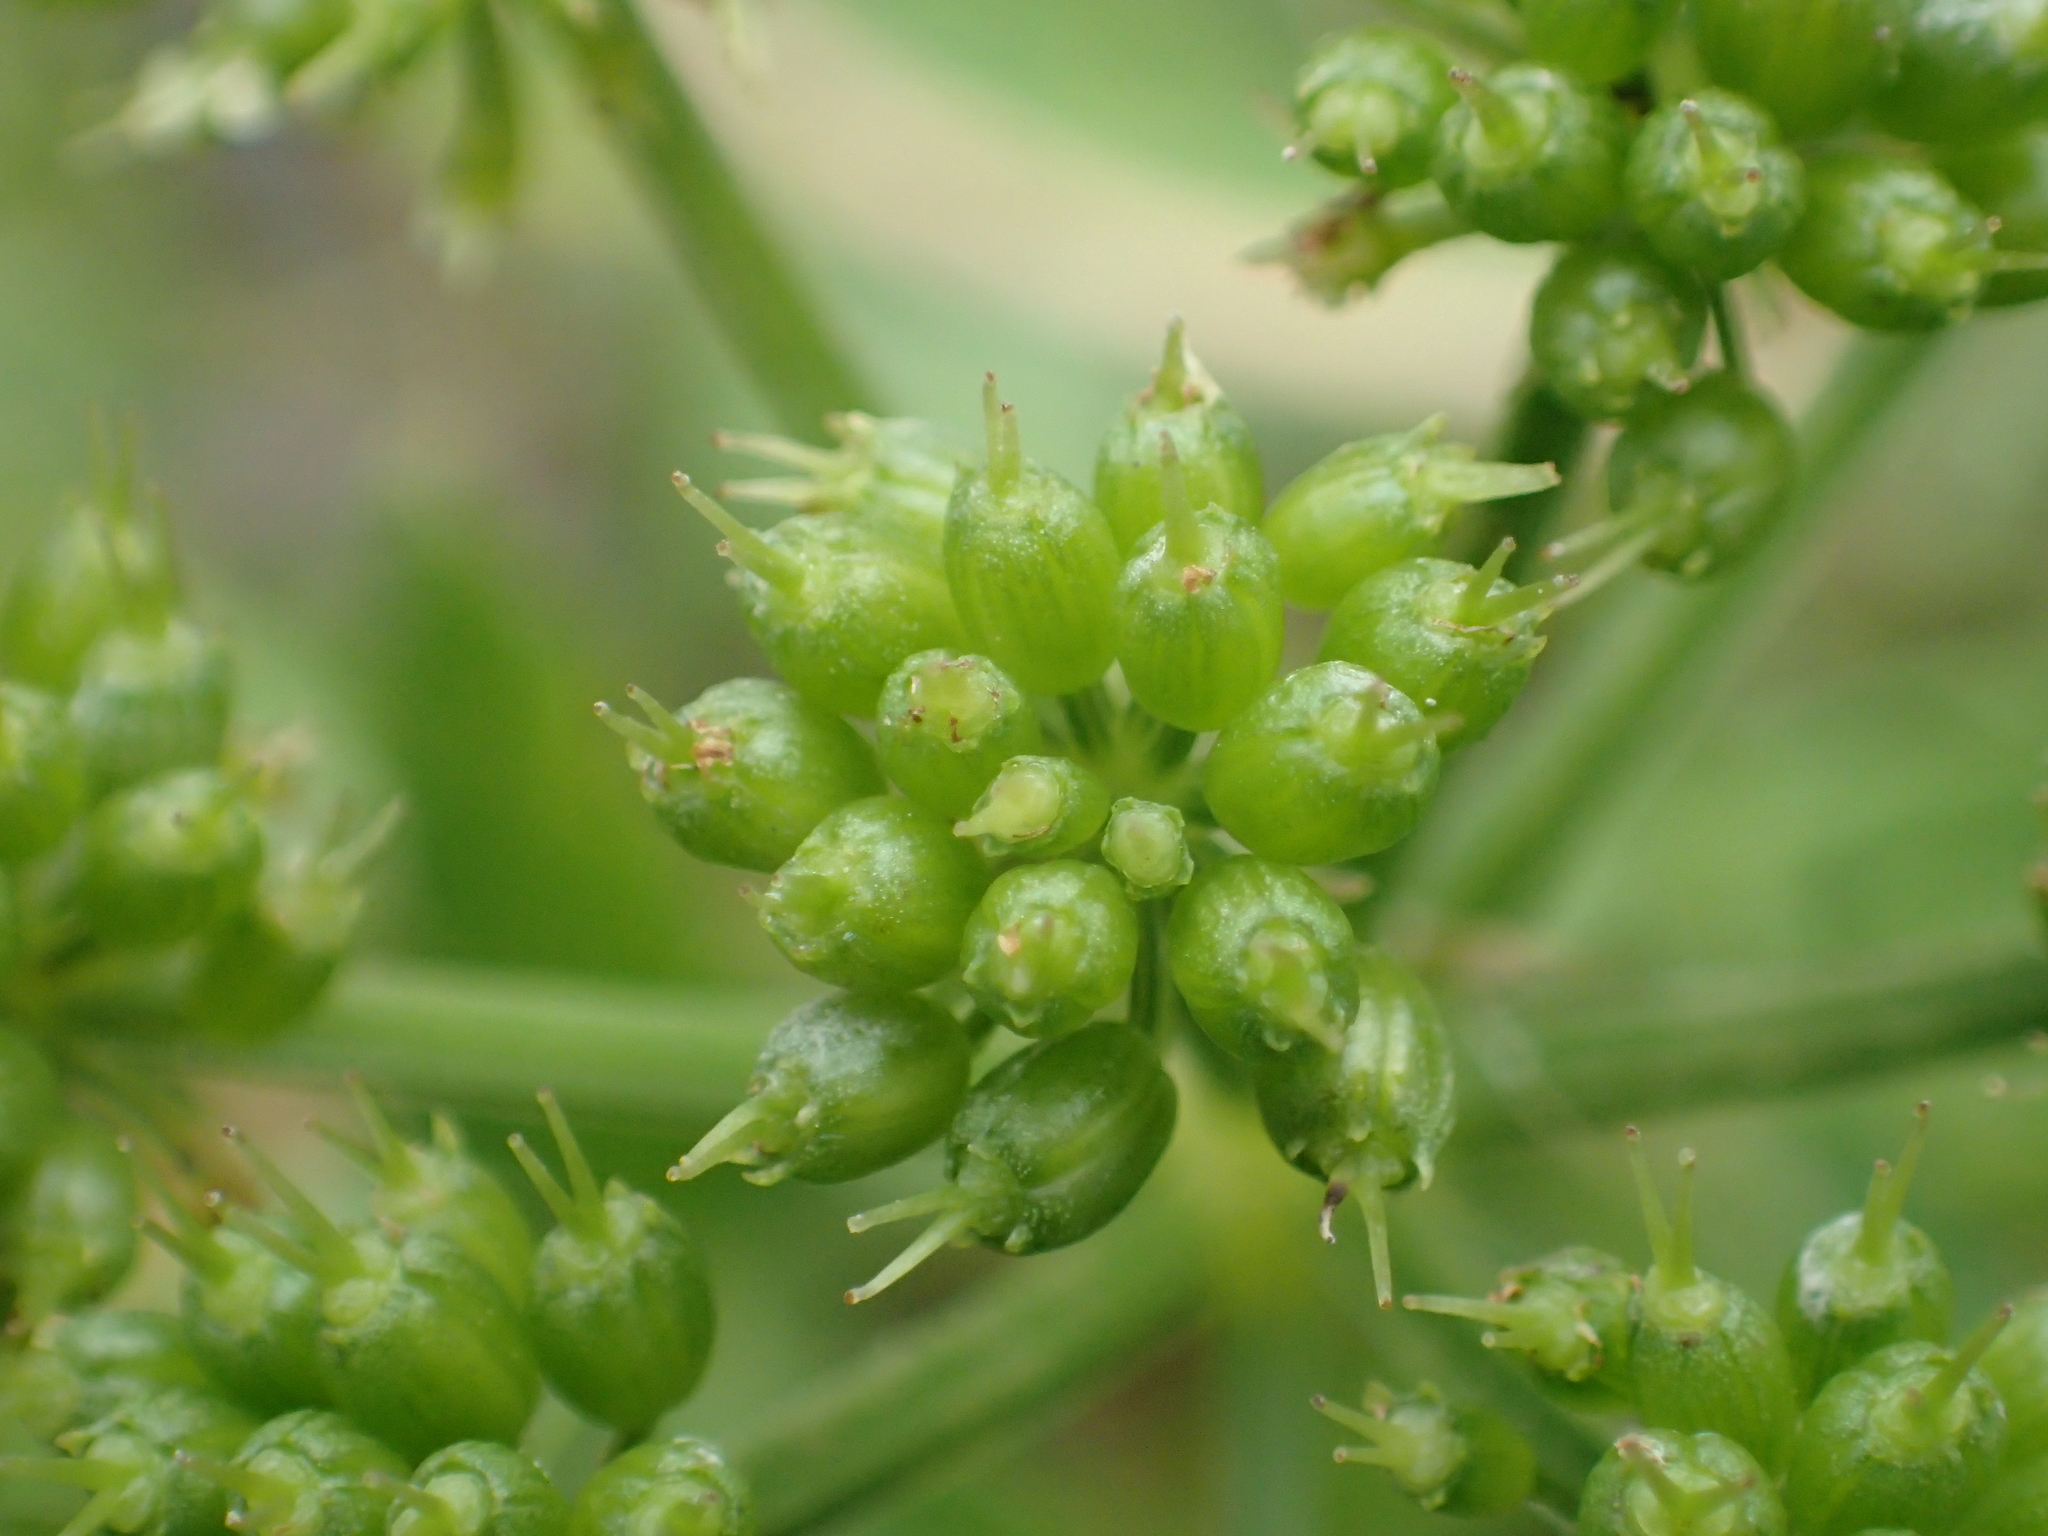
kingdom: Plantae
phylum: Tracheophyta
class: Magnoliopsida
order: Apiales
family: Apiaceae
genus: Oenanthe
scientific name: Oenanthe javanica
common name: Java water-dropwort
